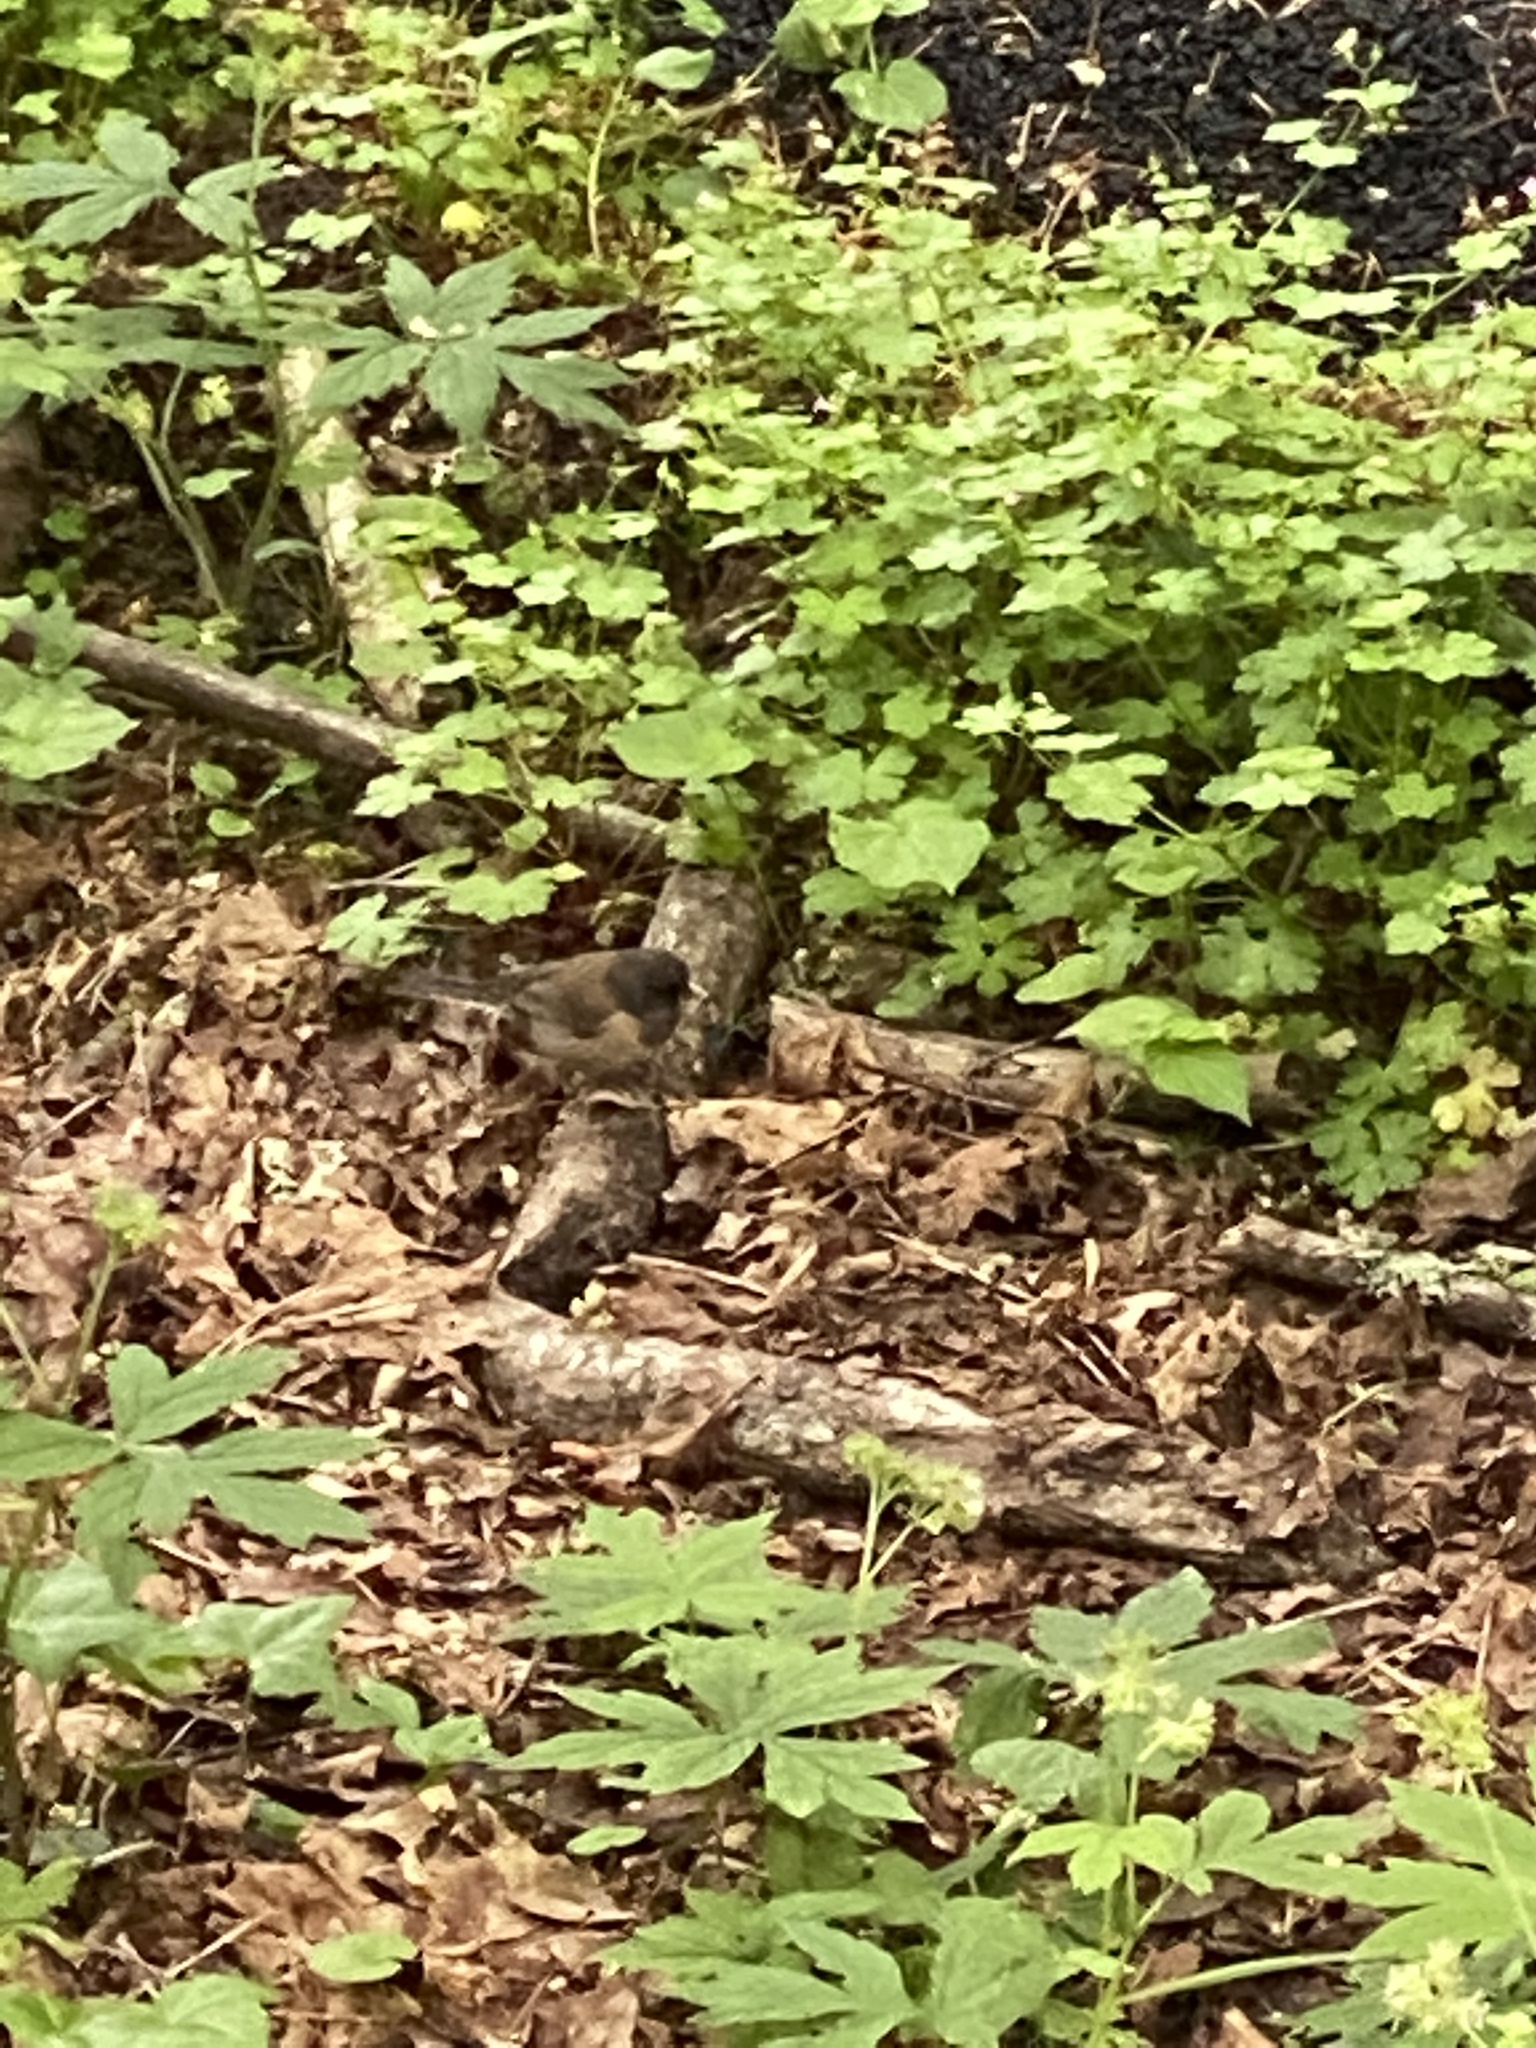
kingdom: Animalia
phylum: Chordata
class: Aves
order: Passeriformes
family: Passerellidae
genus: Junco
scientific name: Junco hyemalis
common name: Dark-eyed junco
